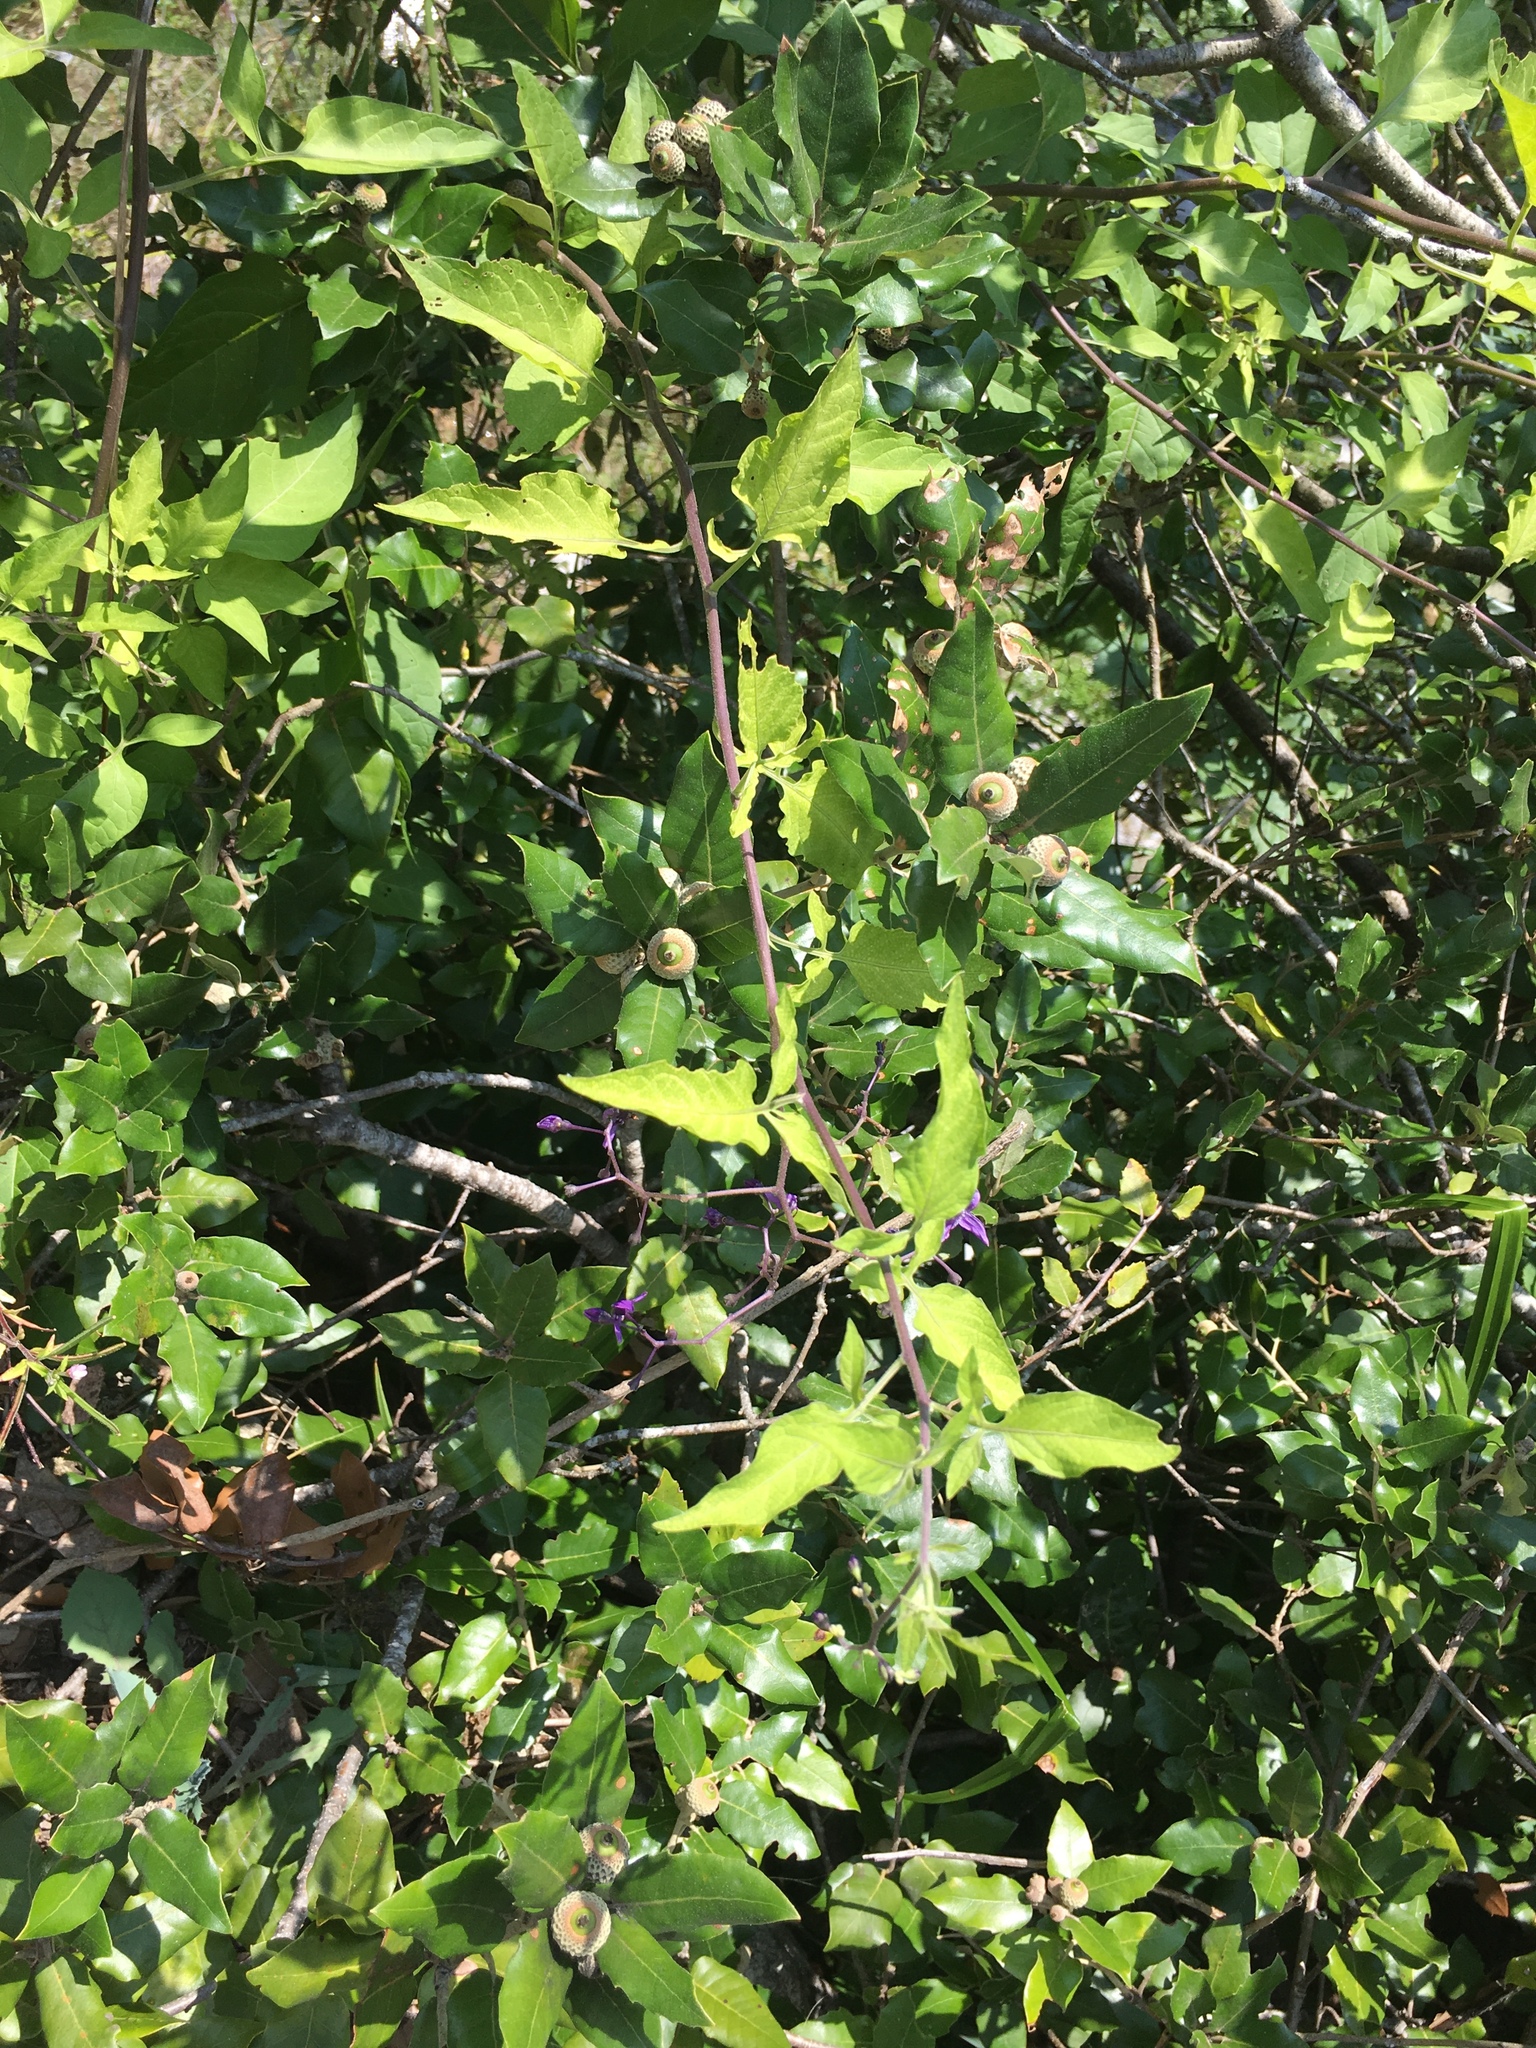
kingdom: Plantae
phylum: Tracheophyta
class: Magnoliopsida
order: Ranunculales
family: Ranunculaceae
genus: Clematis
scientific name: Clematis vitalba
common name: Evergreen clematis
